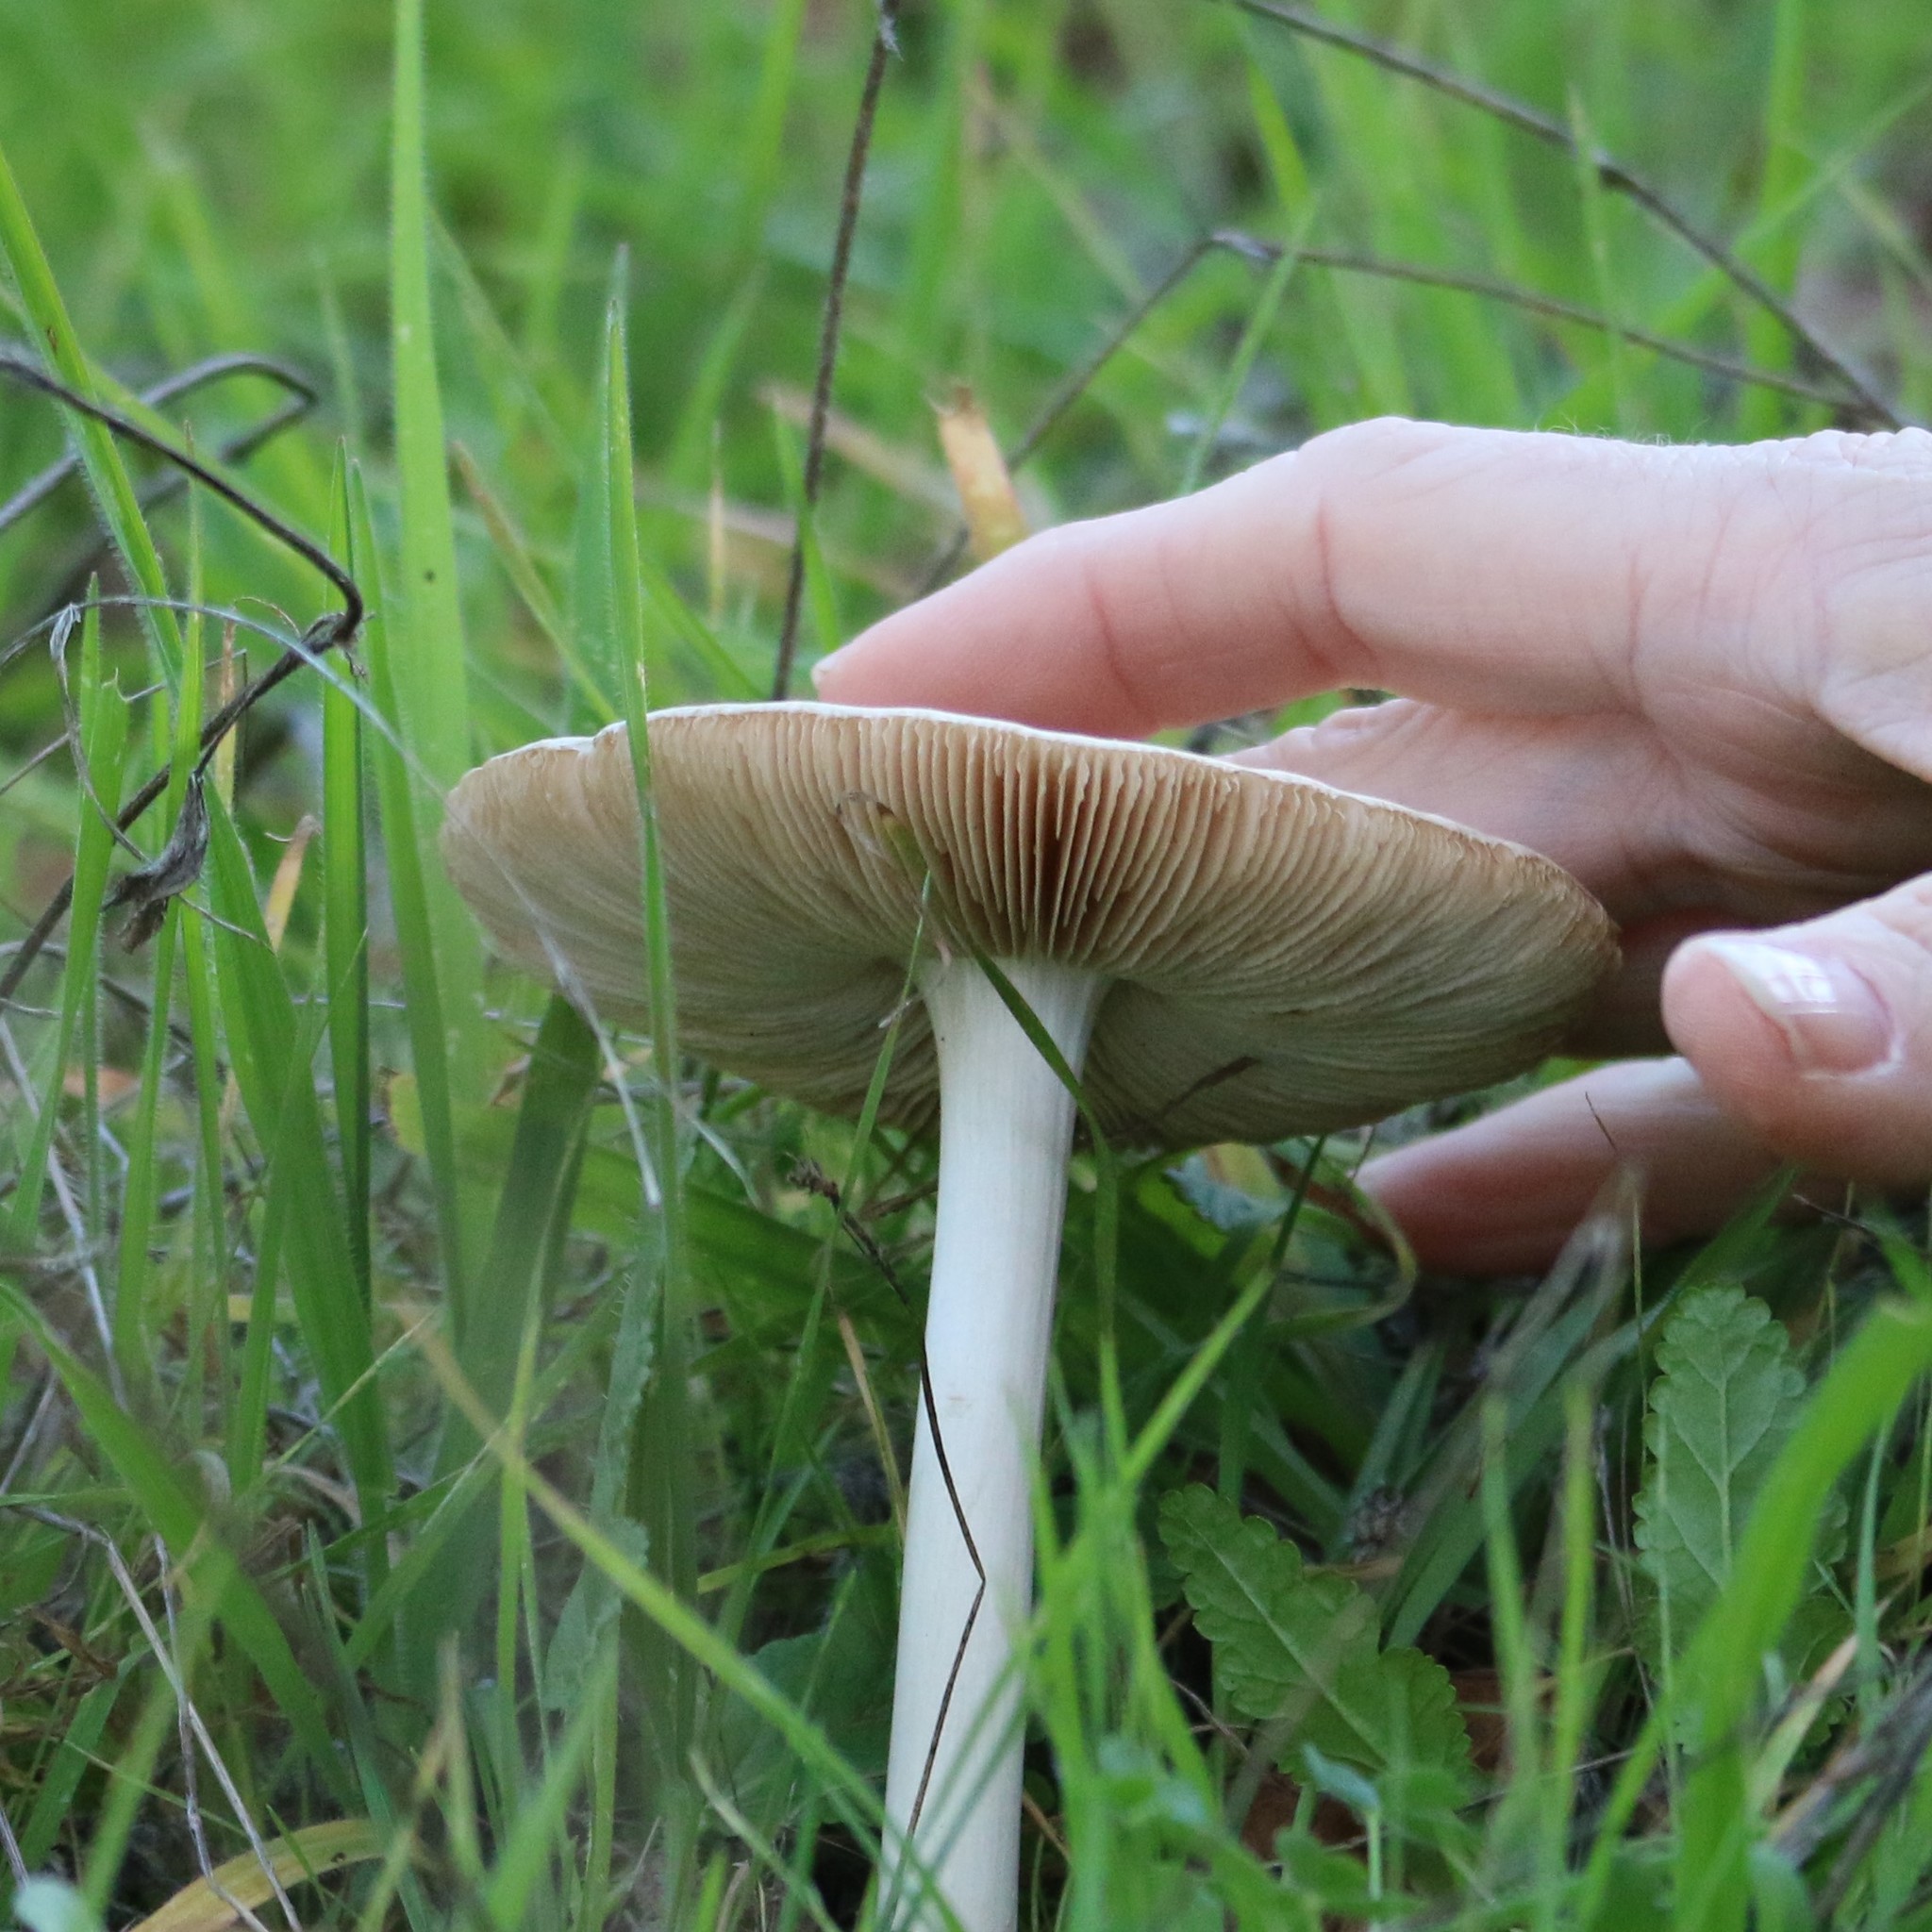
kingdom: Fungi
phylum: Basidiomycota
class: Agaricomycetes
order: Agaricales
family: Pluteaceae
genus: Volvopluteus
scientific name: Volvopluteus gloiocephalus
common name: Stubble rosegill
